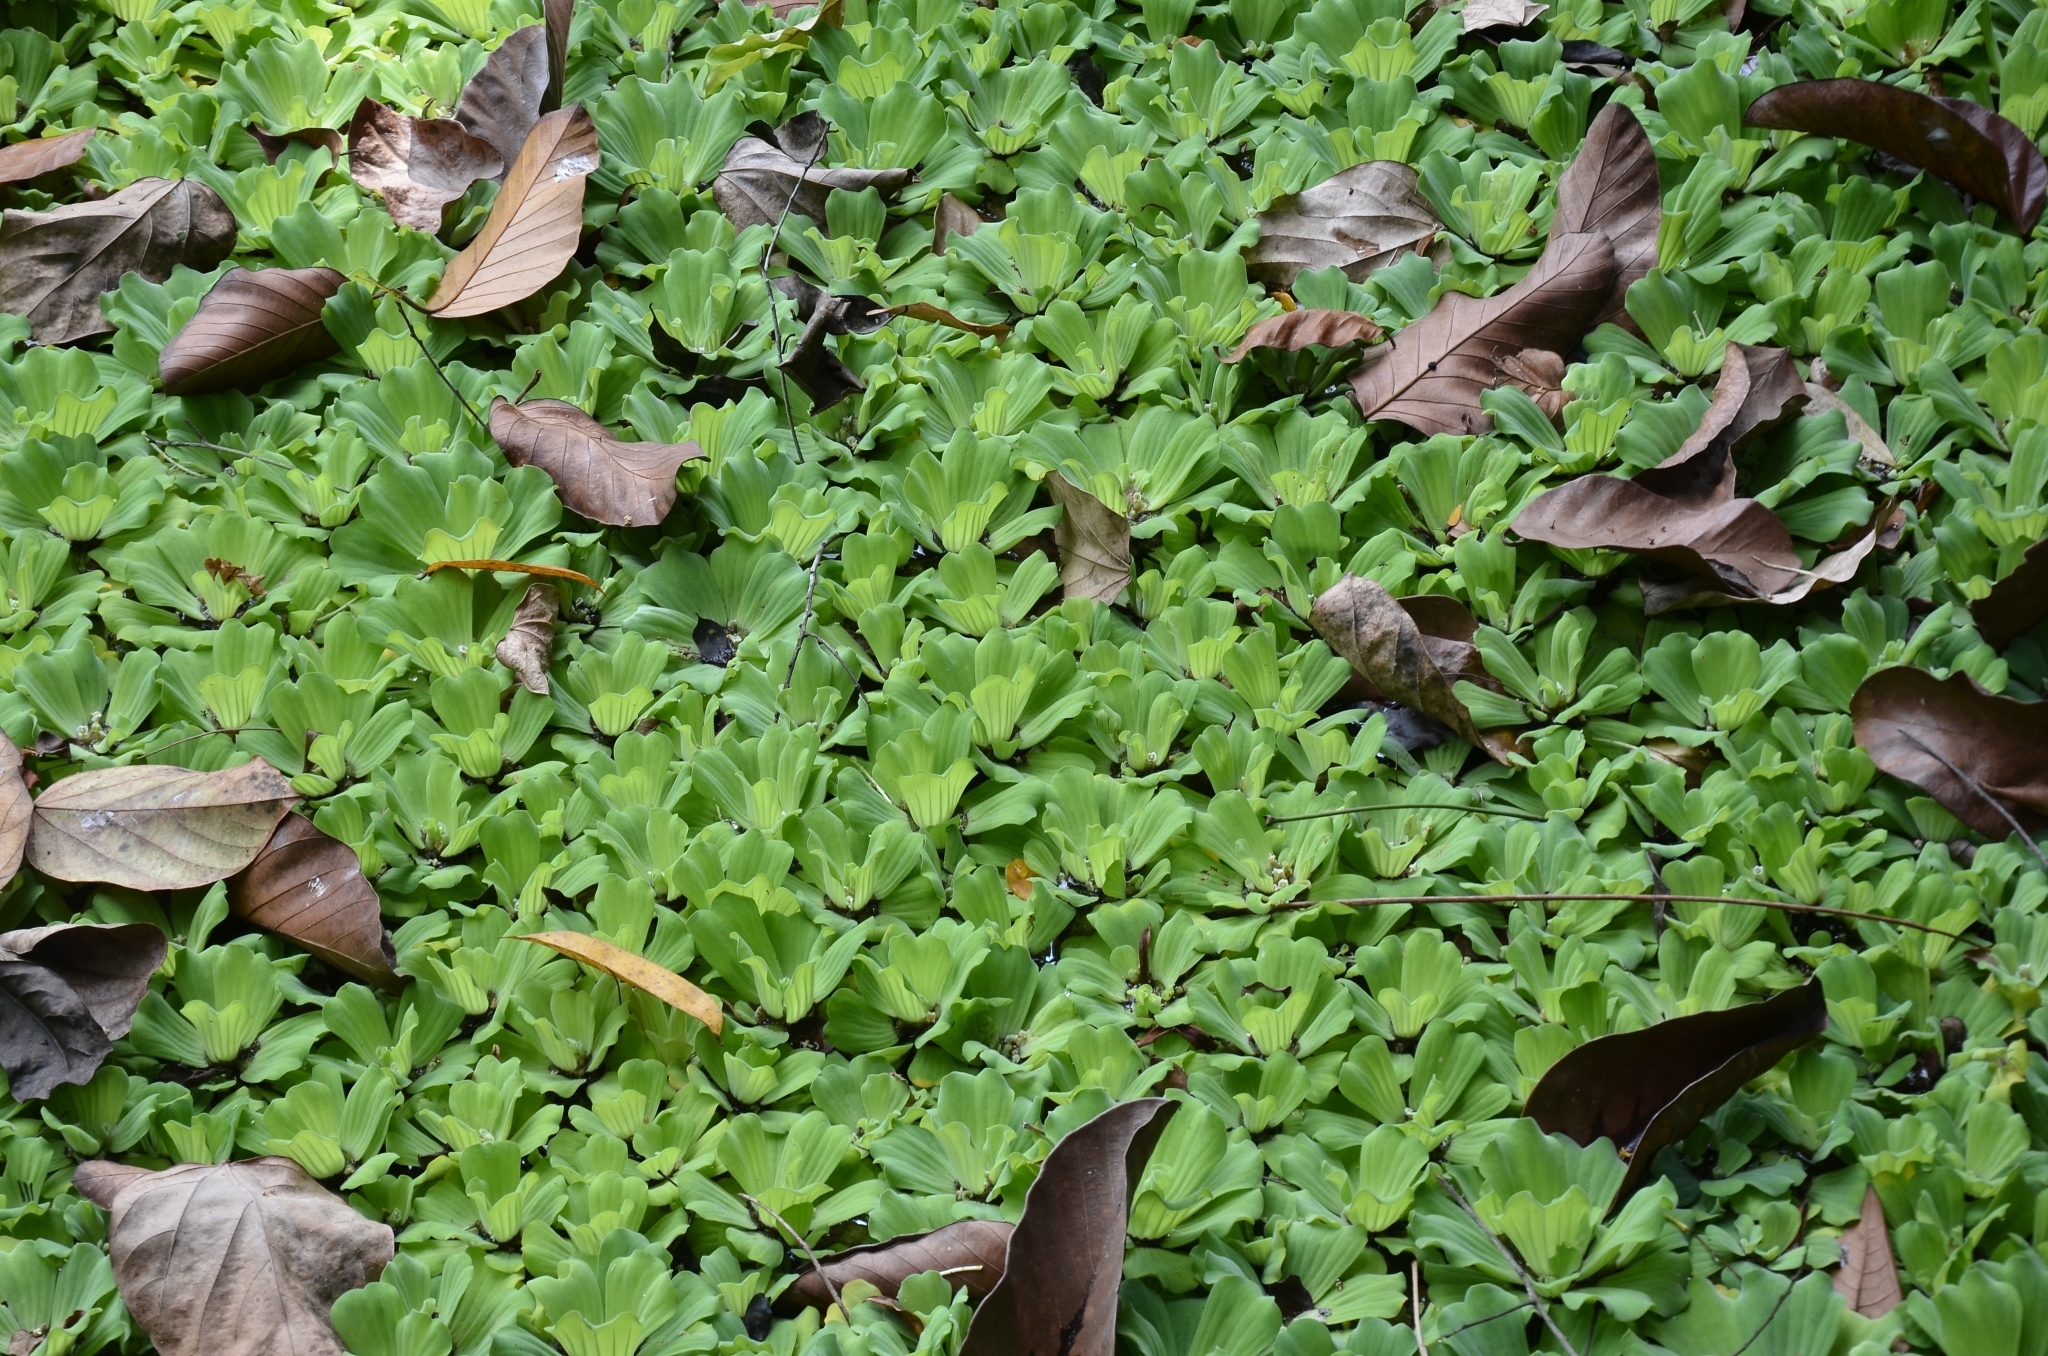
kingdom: Plantae
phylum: Tracheophyta
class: Liliopsida
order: Alismatales
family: Araceae
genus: Pistia
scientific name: Pistia stratiotes
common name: Water lettuce
